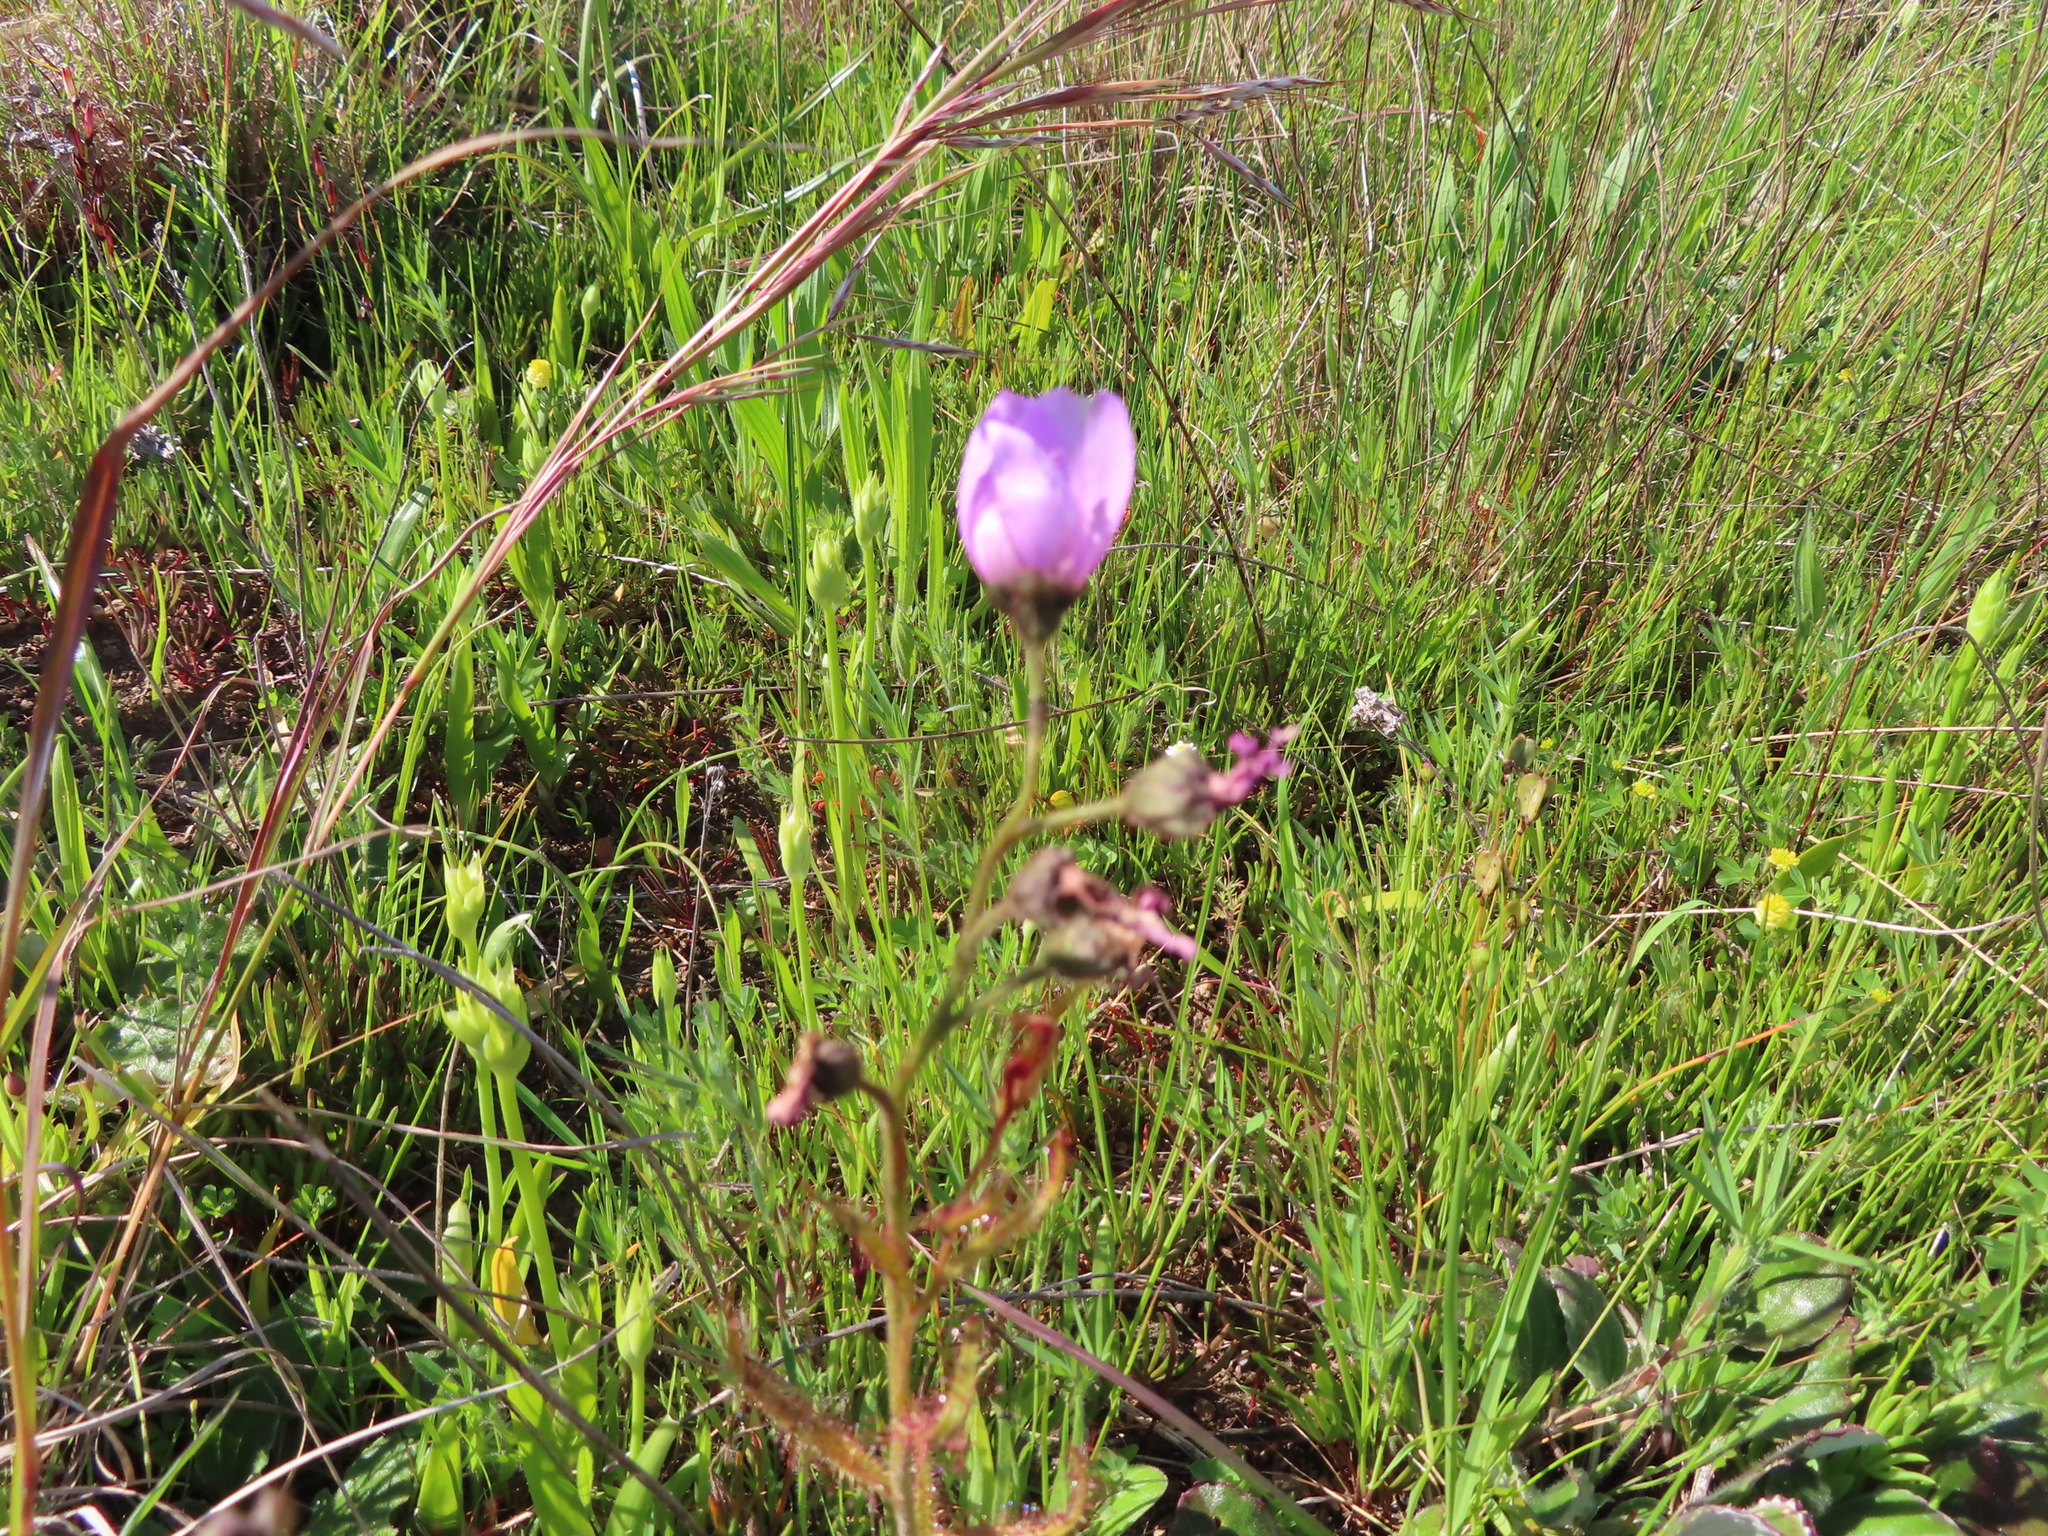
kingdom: Plantae
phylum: Tracheophyta
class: Magnoliopsida
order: Caryophyllales
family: Droseraceae
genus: Drosera
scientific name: Drosera cistiflora
